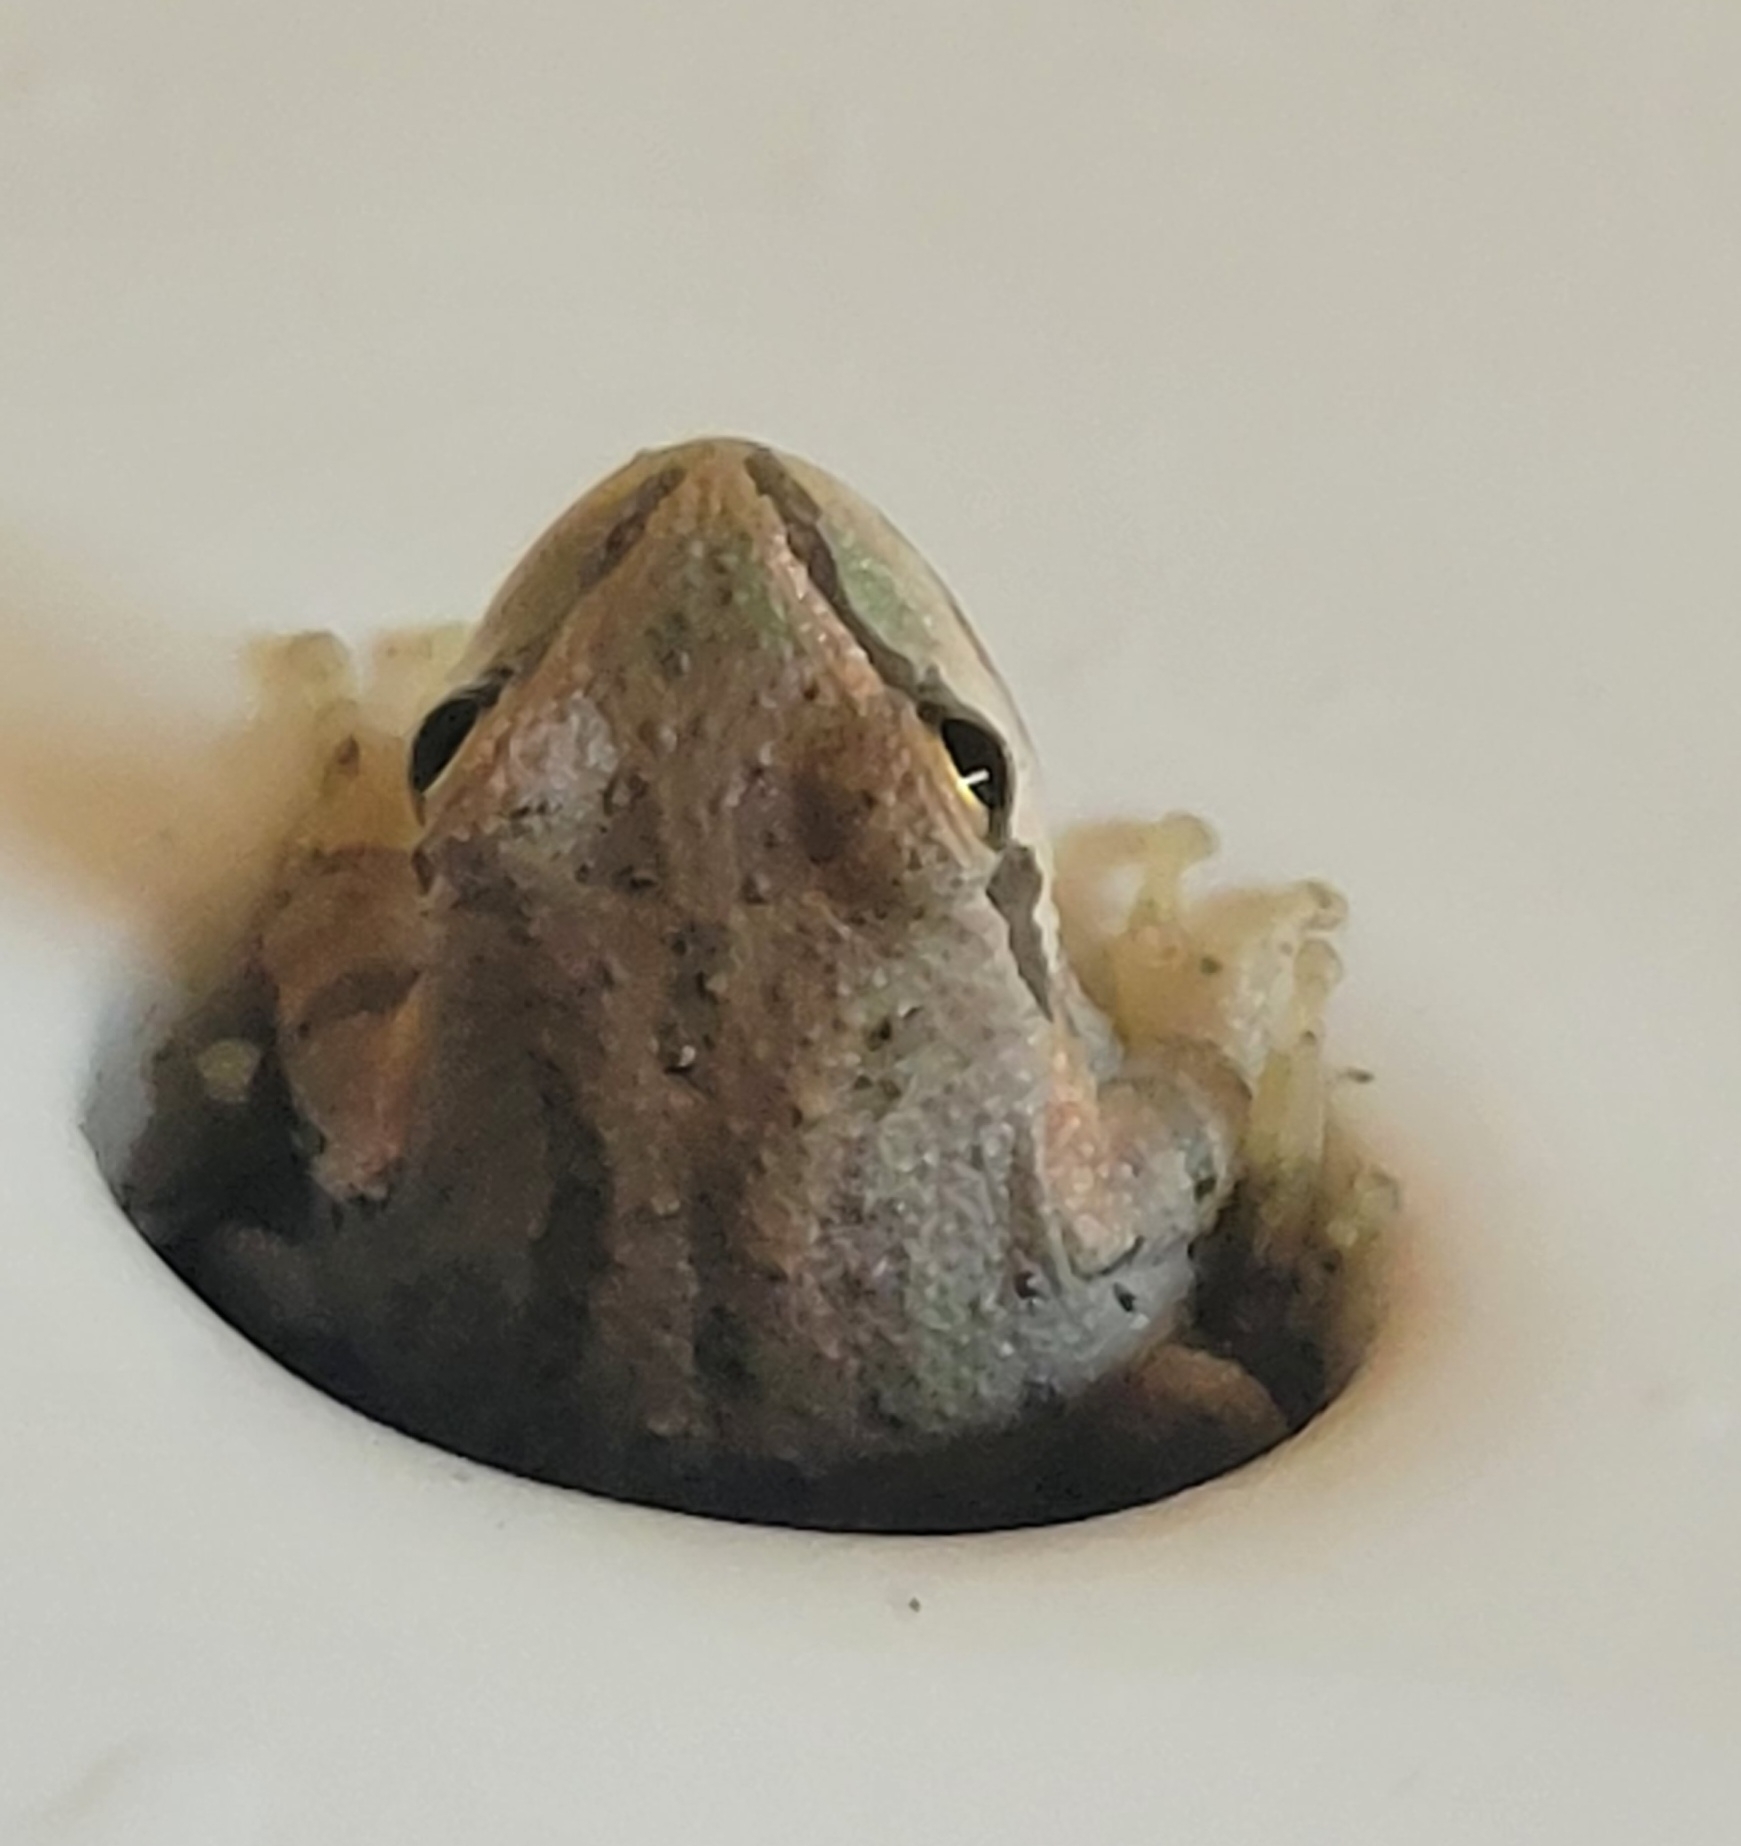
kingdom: Animalia
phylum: Chordata
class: Amphibia
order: Anura
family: Hylidae
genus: Pseudacris
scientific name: Pseudacris regilla
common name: Pacific chorus frog
